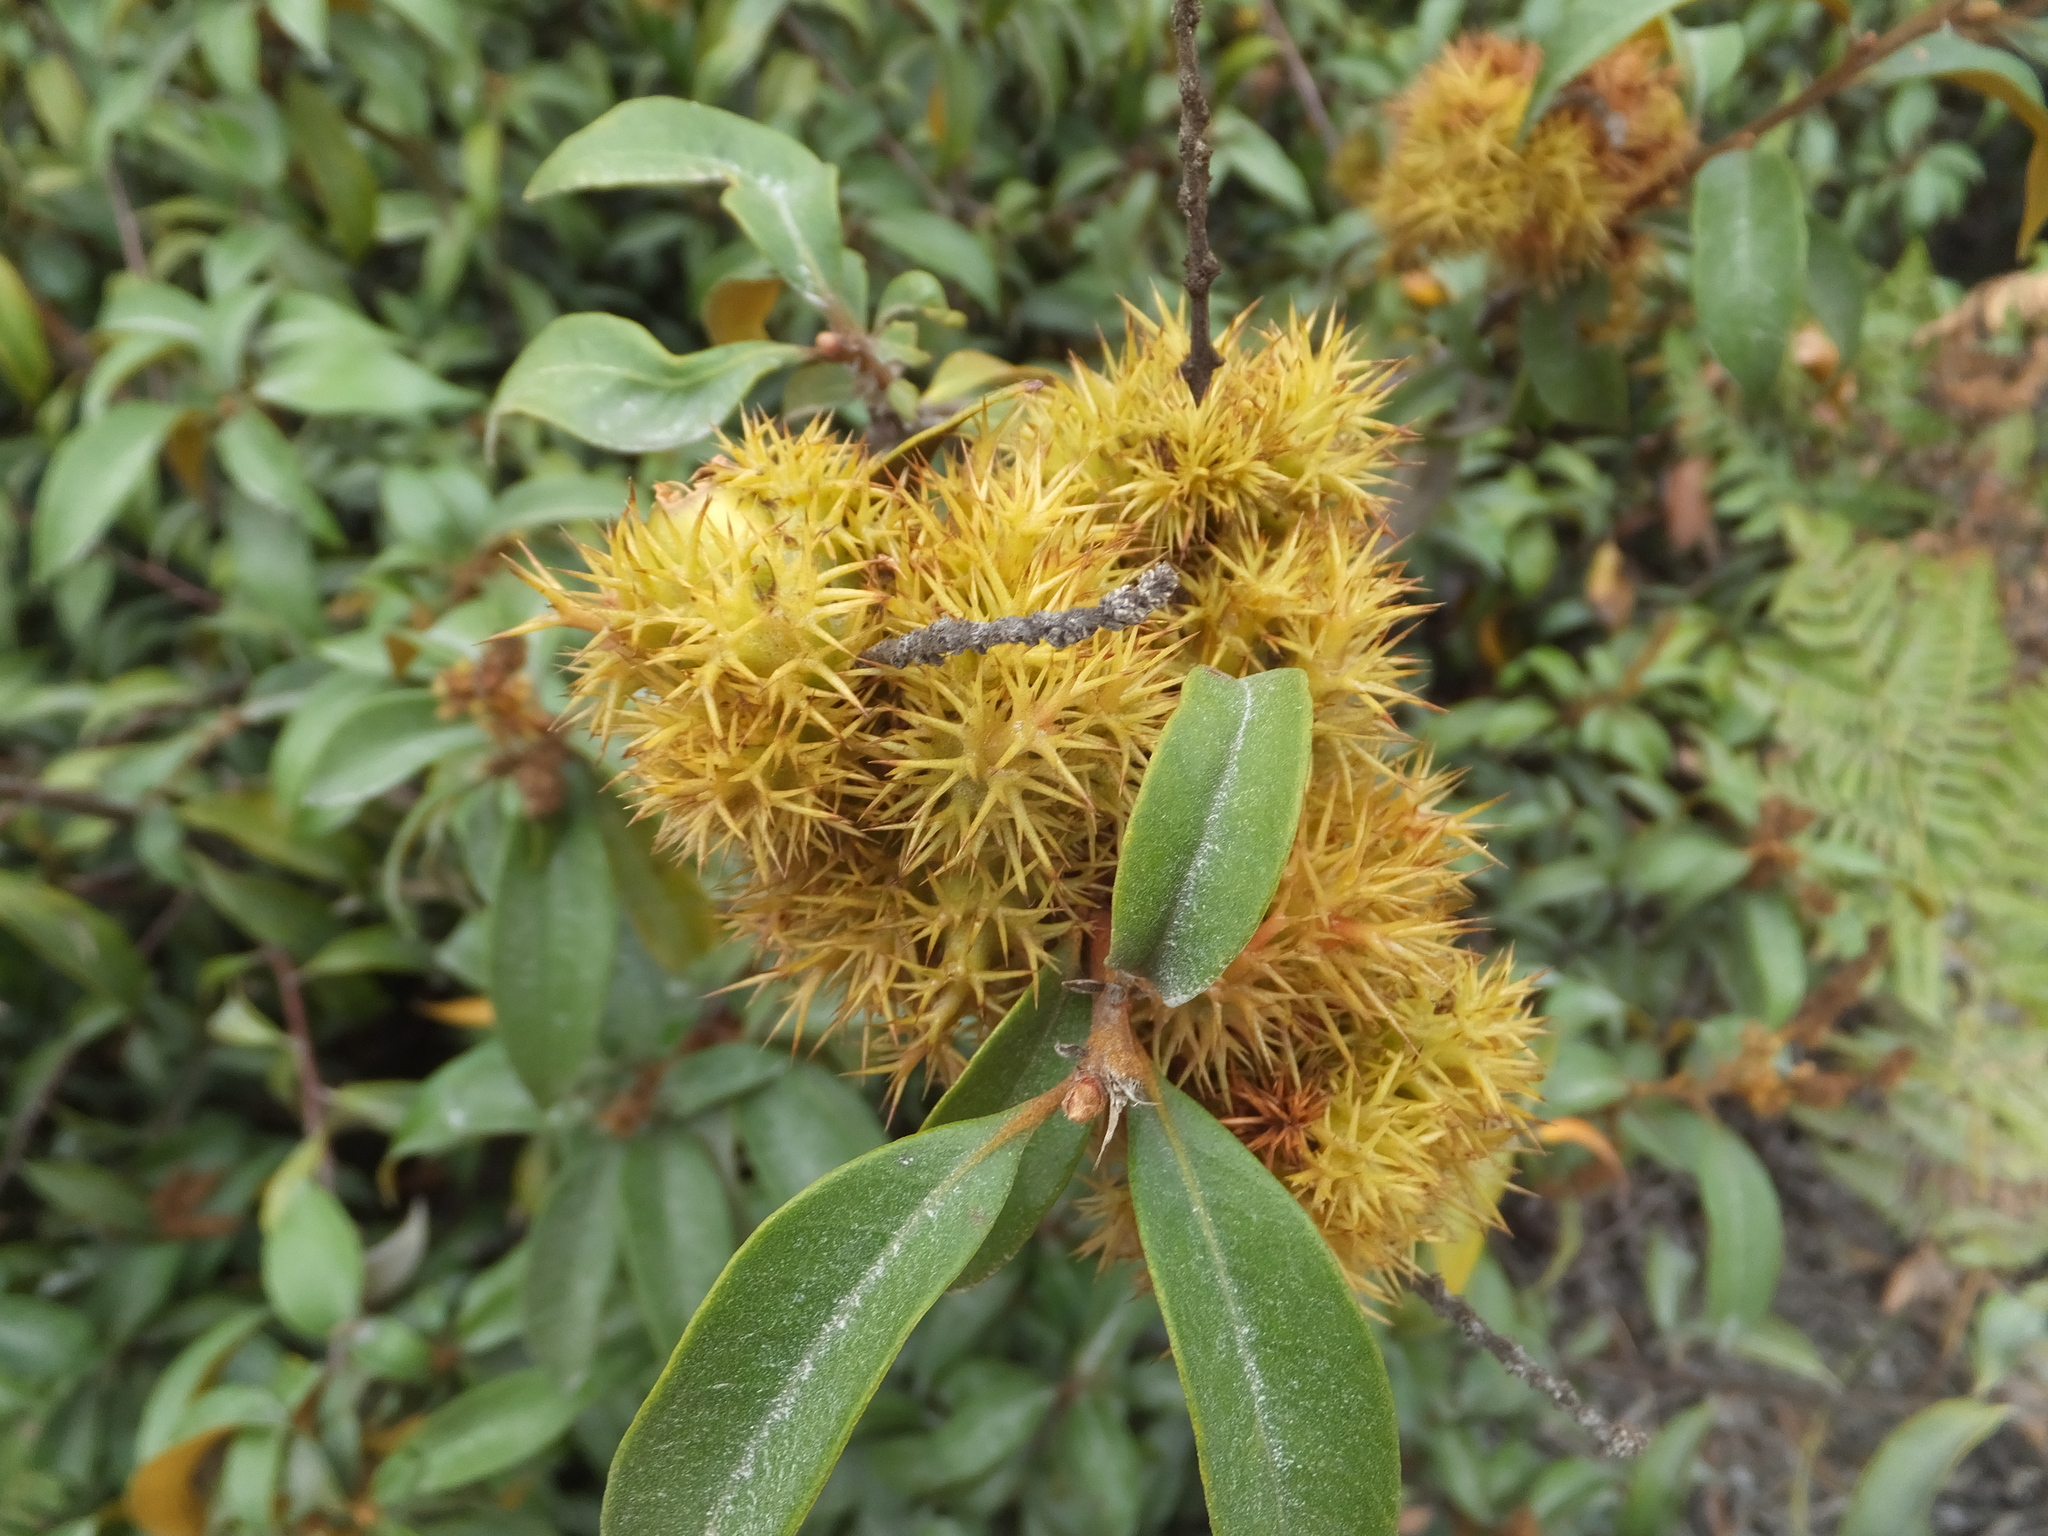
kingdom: Plantae
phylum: Tracheophyta
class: Magnoliopsida
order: Fagales
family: Fagaceae
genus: Chrysolepis
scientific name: Chrysolepis chrysophylla
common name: Giant chinquapin
